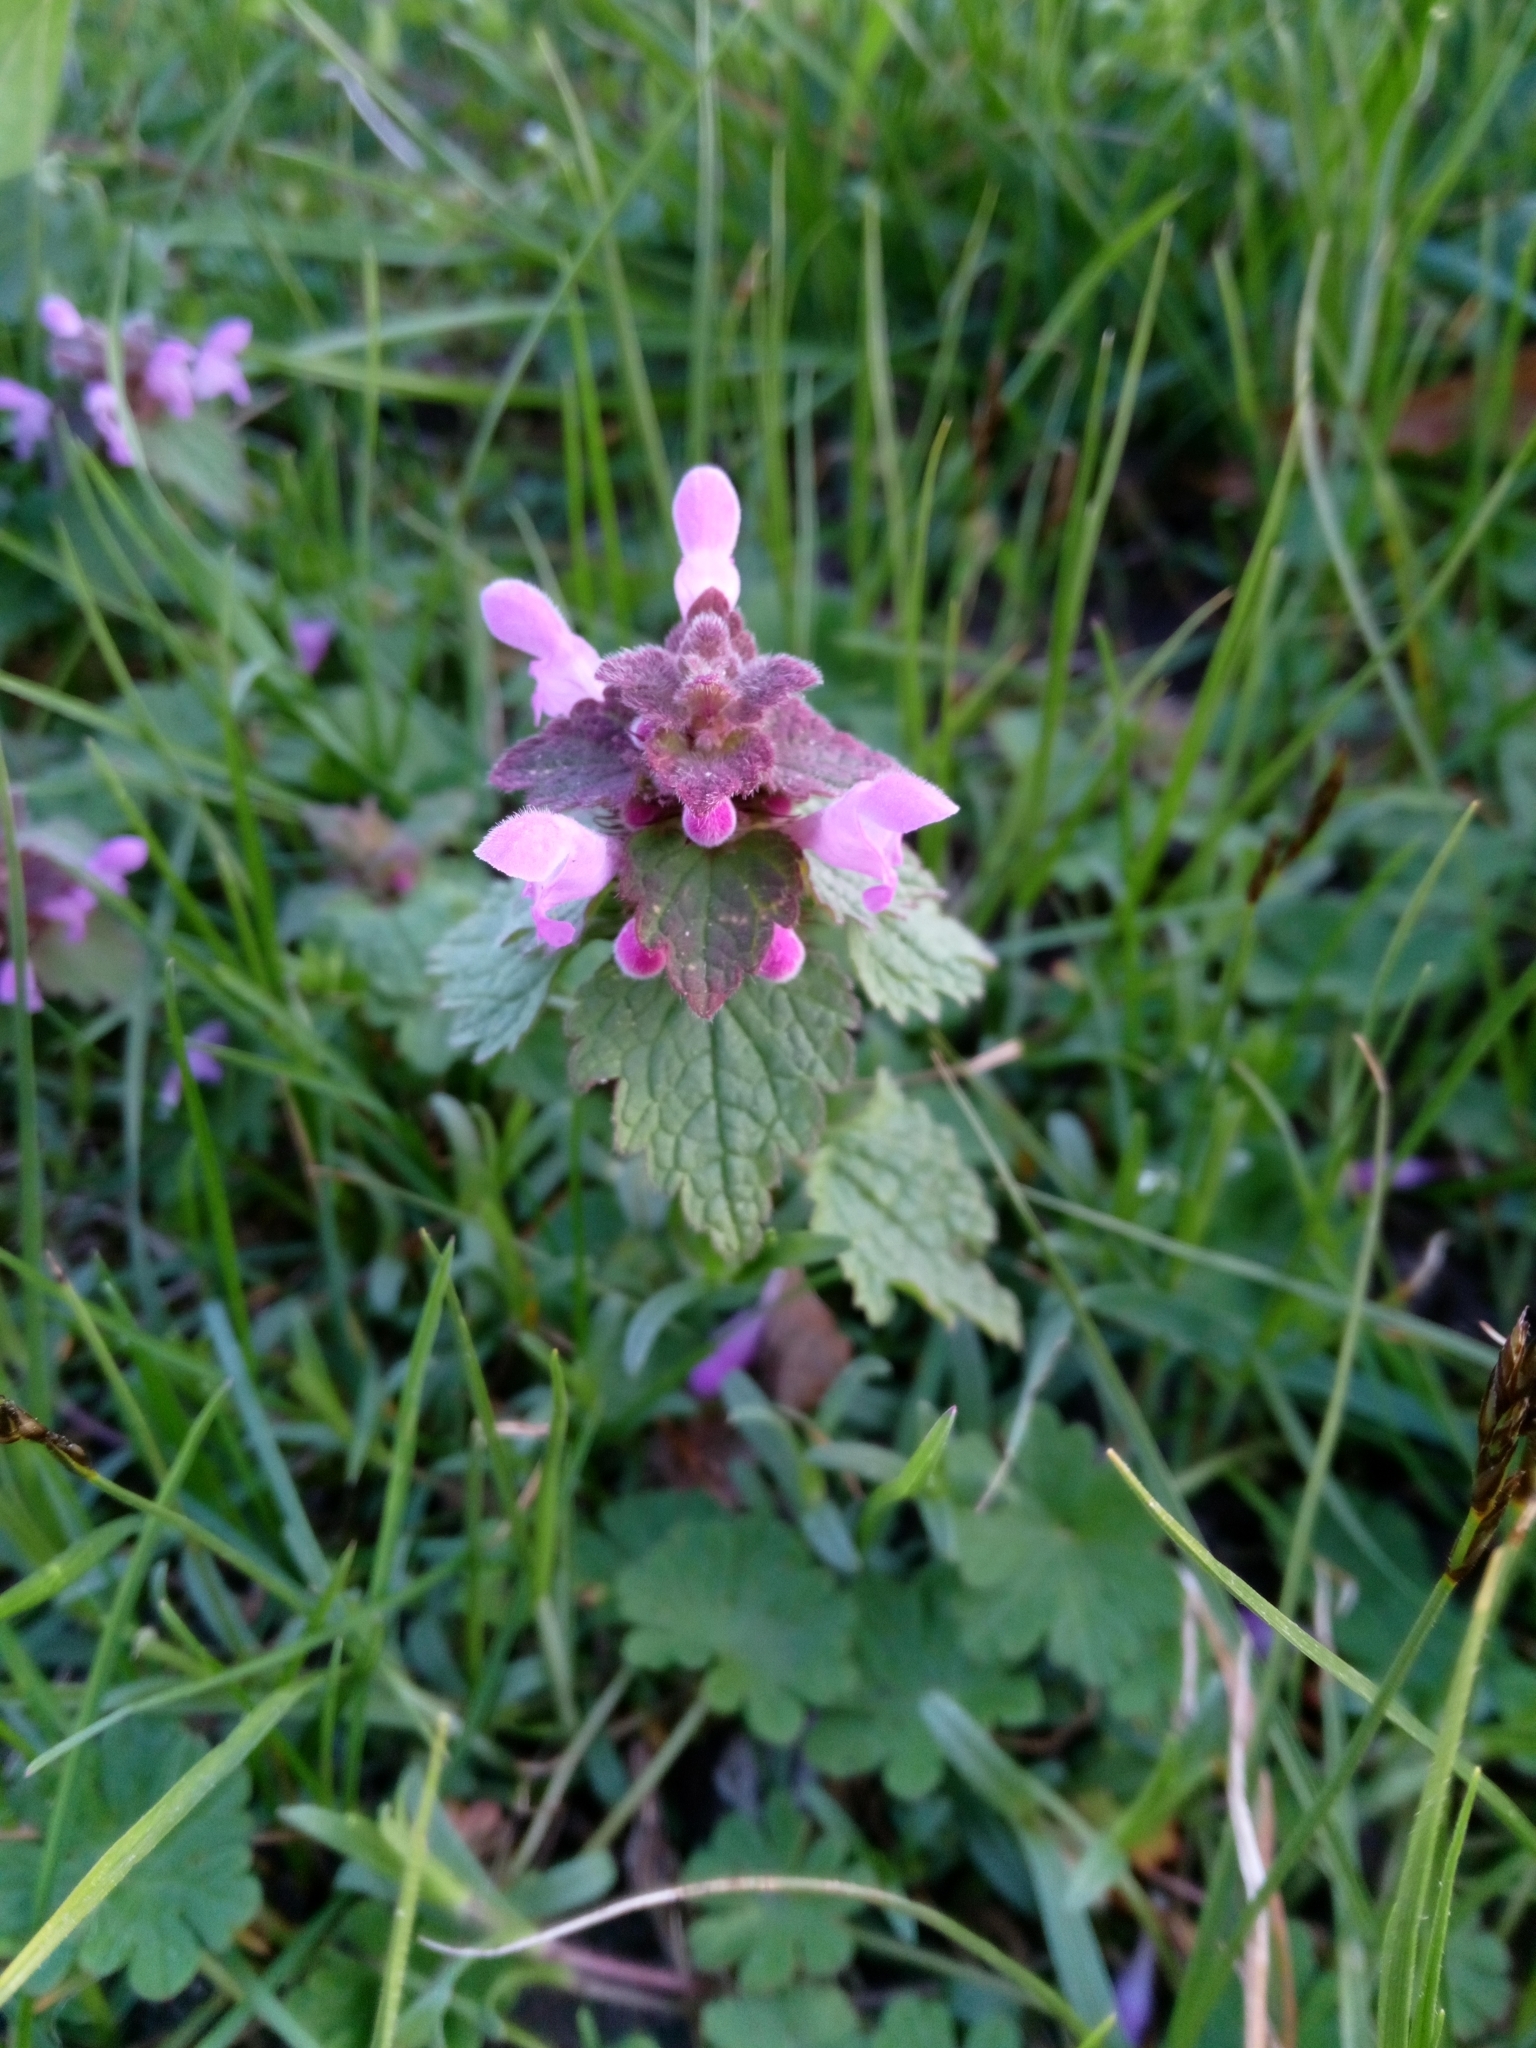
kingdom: Plantae
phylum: Tracheophyta
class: Magnoliopsida
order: Lamiales
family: Lamiaceae
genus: Lamium
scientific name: Lamium purpureum
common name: Red dead-nettle
